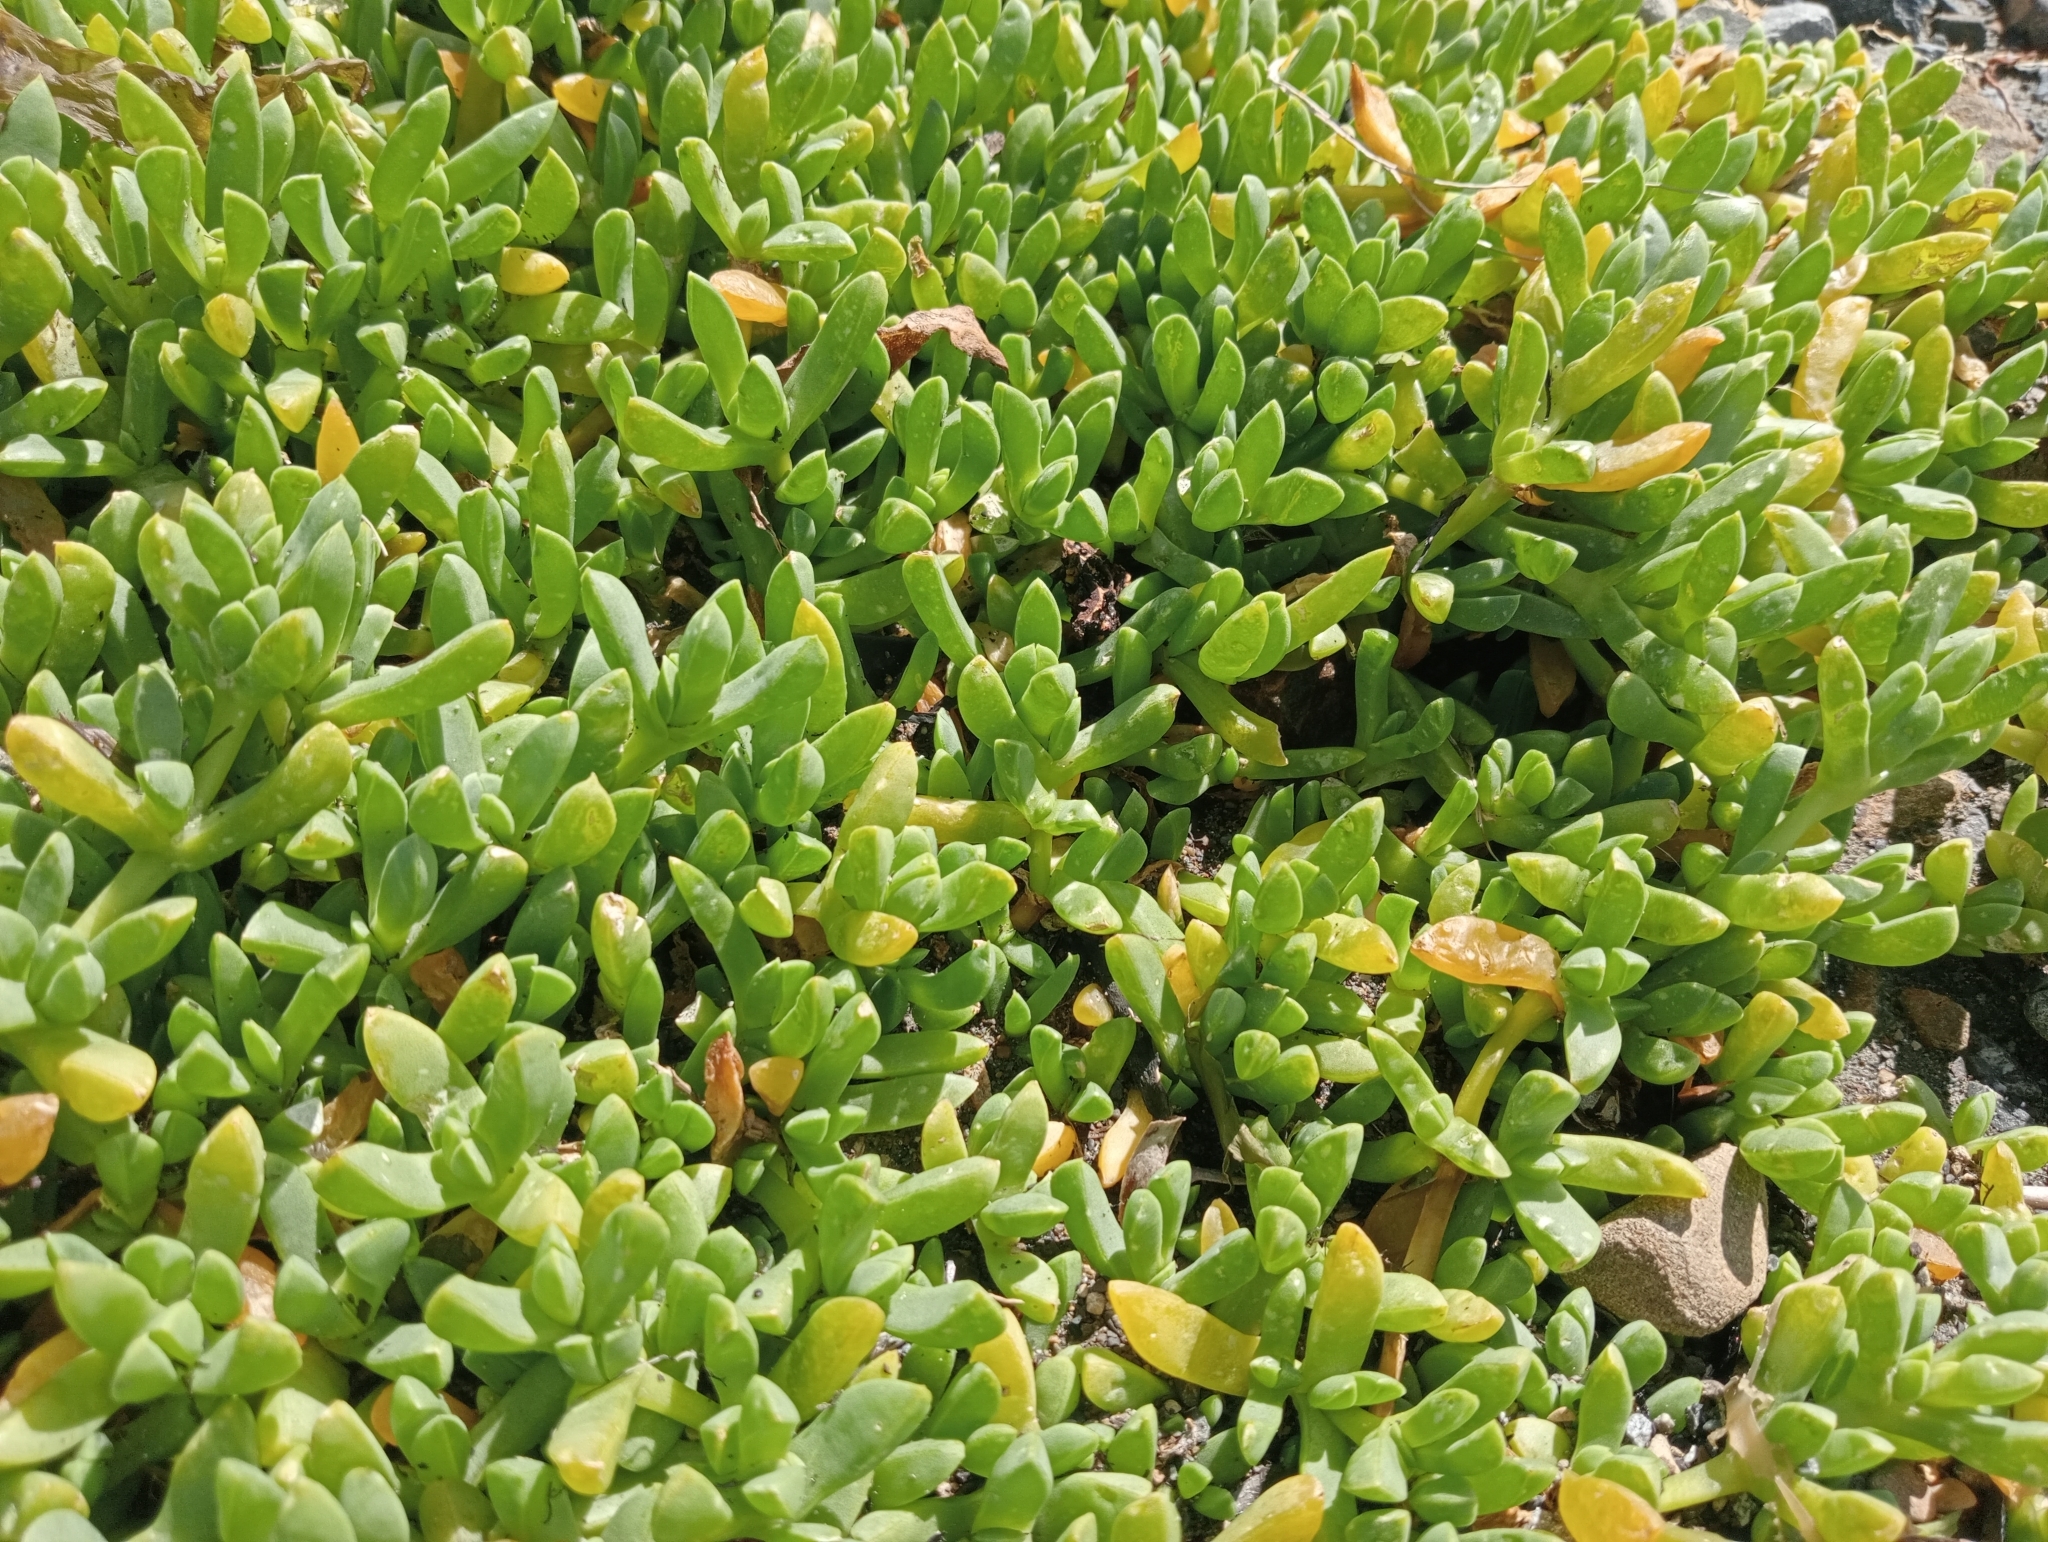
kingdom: Plantae
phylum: Tracheophyta
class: Magnoliopsida
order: Caryophyllales
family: Aizoaceae
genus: Disphyma
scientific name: Disphyma australe
